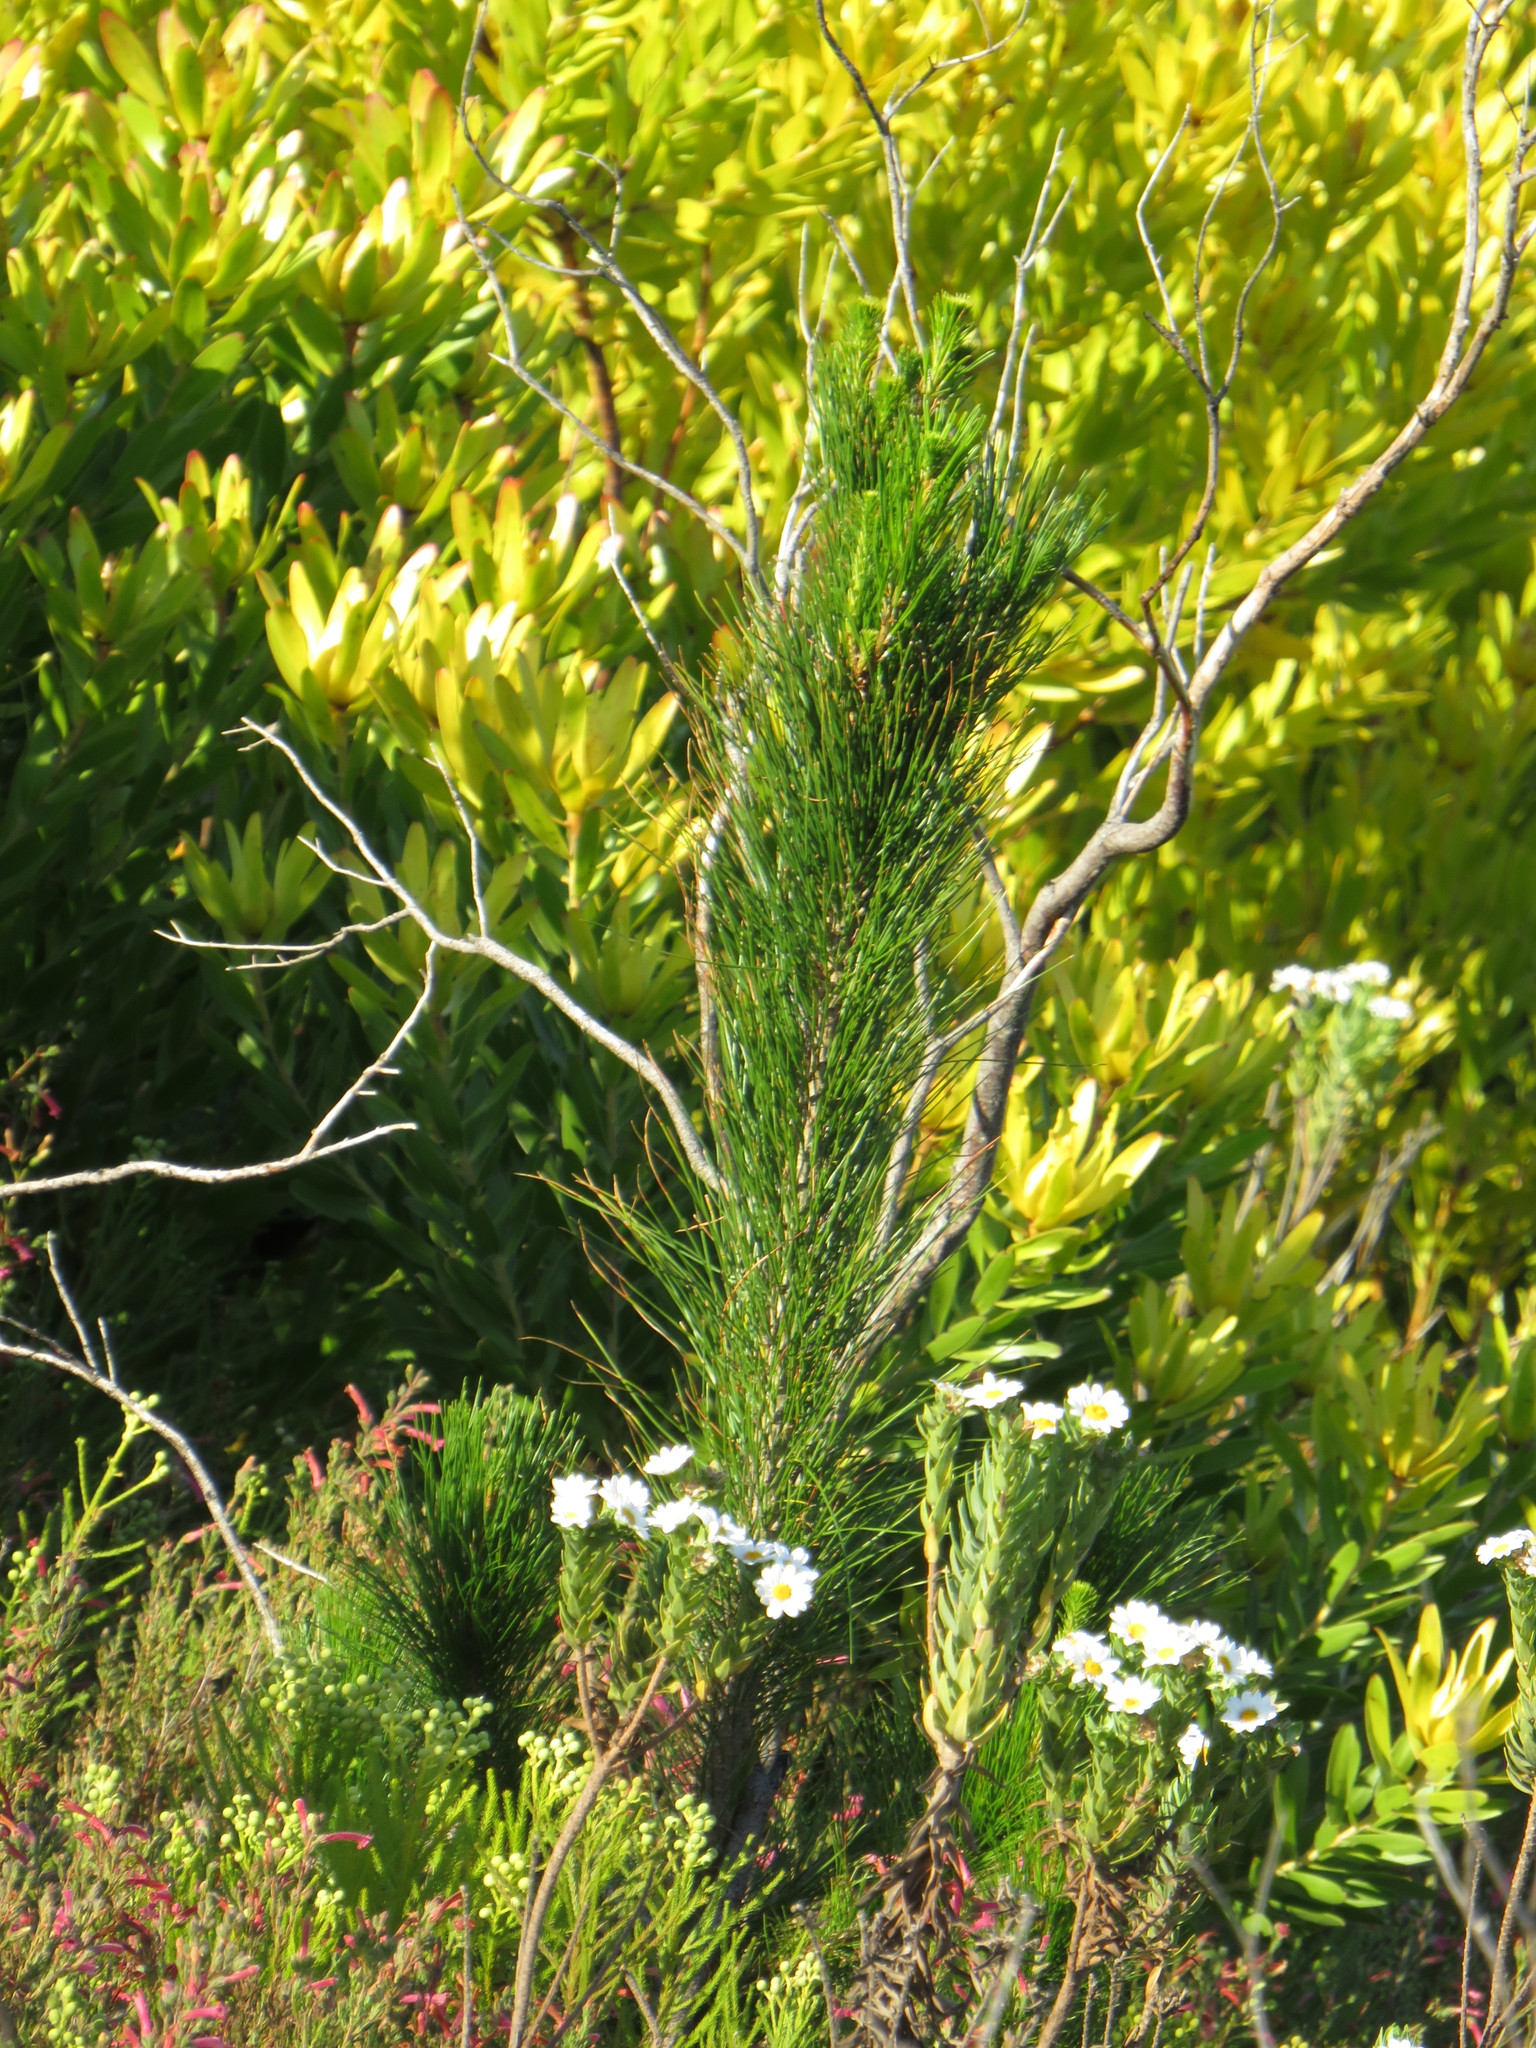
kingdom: Plantae
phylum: Tracheophyta
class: Pinopsida
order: Pinales
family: Pinaceae
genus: Pinus
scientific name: Pinus radiata
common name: Monterey pine
